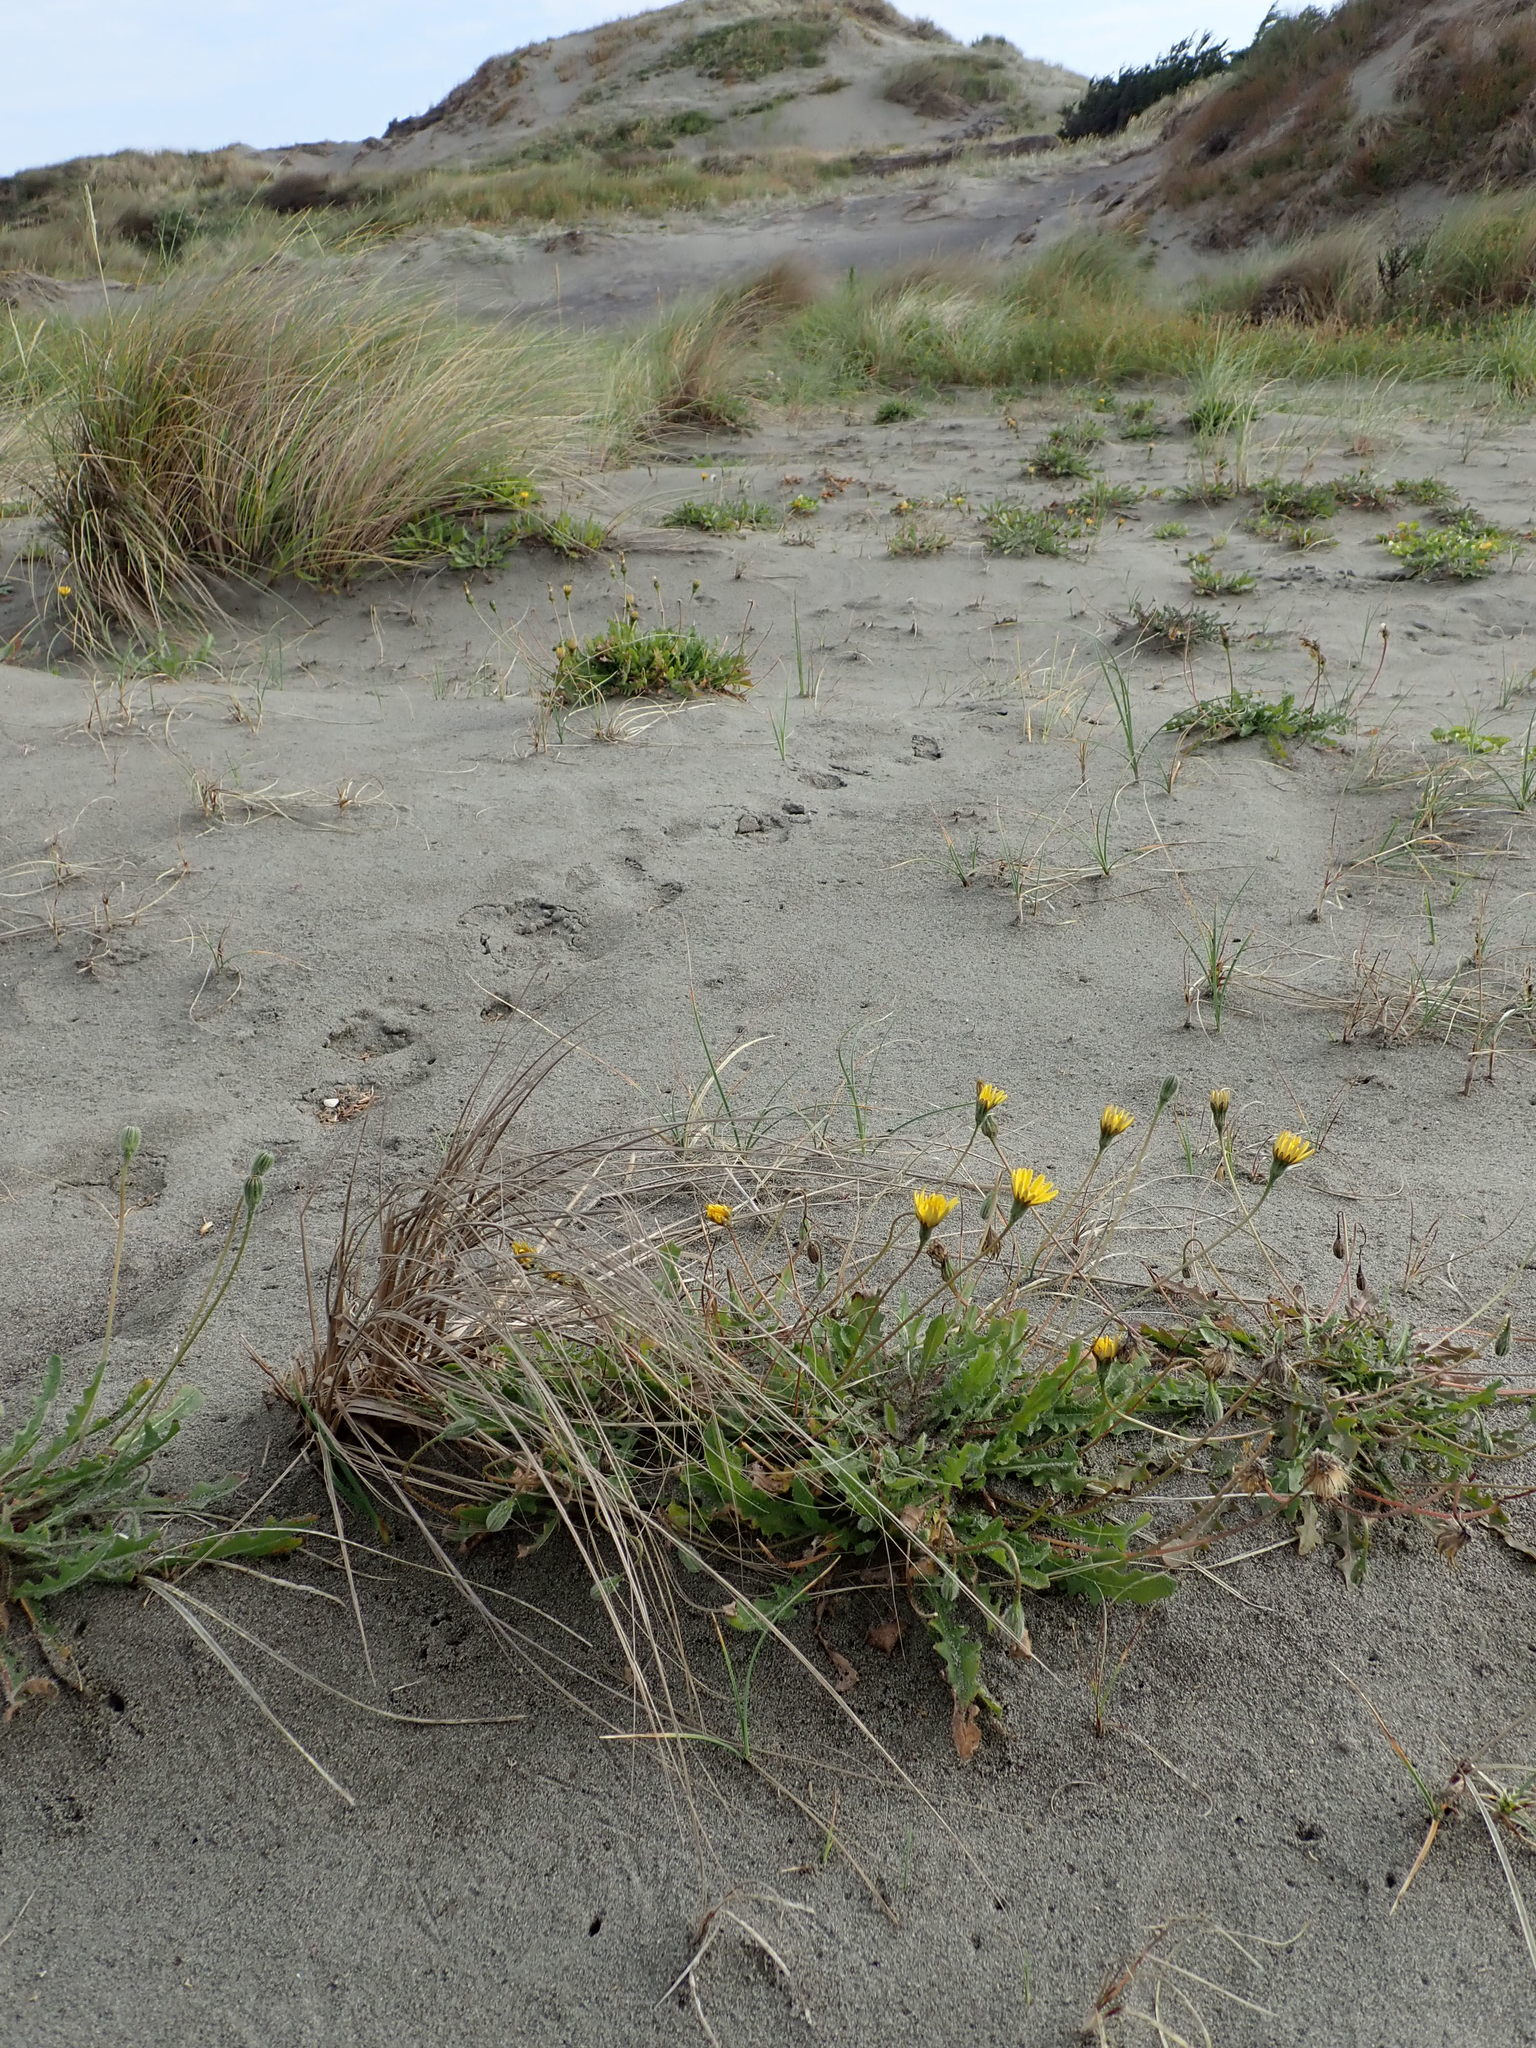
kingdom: Plantae
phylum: Tracheophyta
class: Magnoliopsida
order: Asterales
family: Asteraceae
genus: Hypochaeris
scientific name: Hypochaeris radicata
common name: Flatweed
